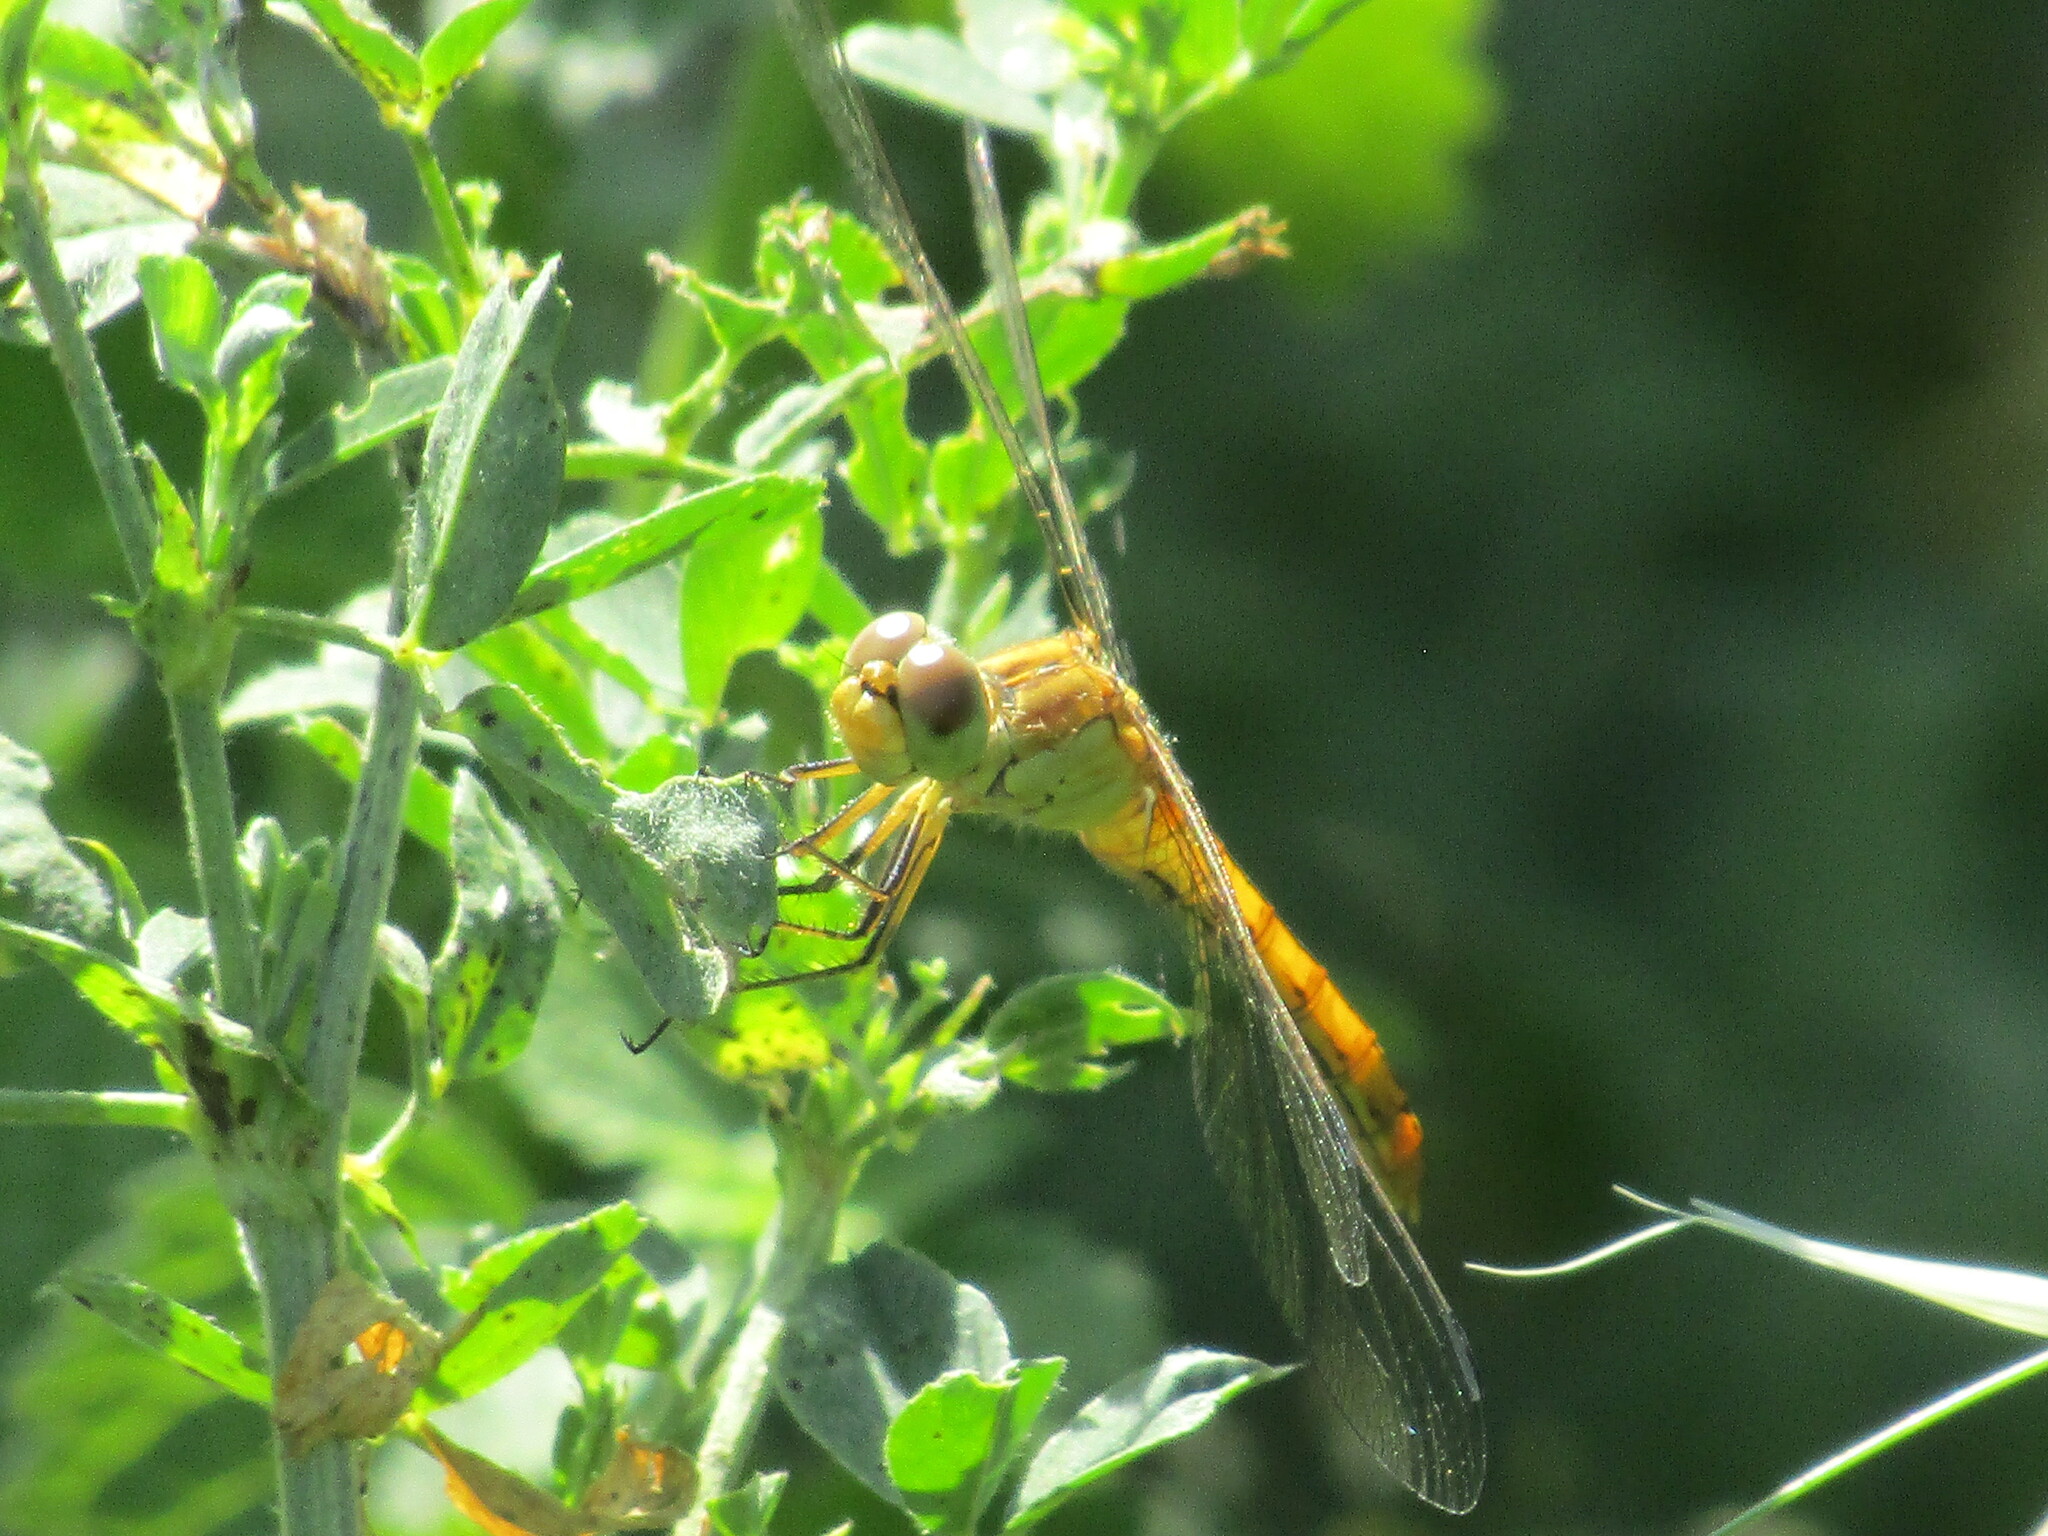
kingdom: Animalia
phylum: Arthropoda
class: Insecta
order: Odonata
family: Libellulidae
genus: Sympetrum
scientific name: Sympetrum meridionale
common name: Southern darter
